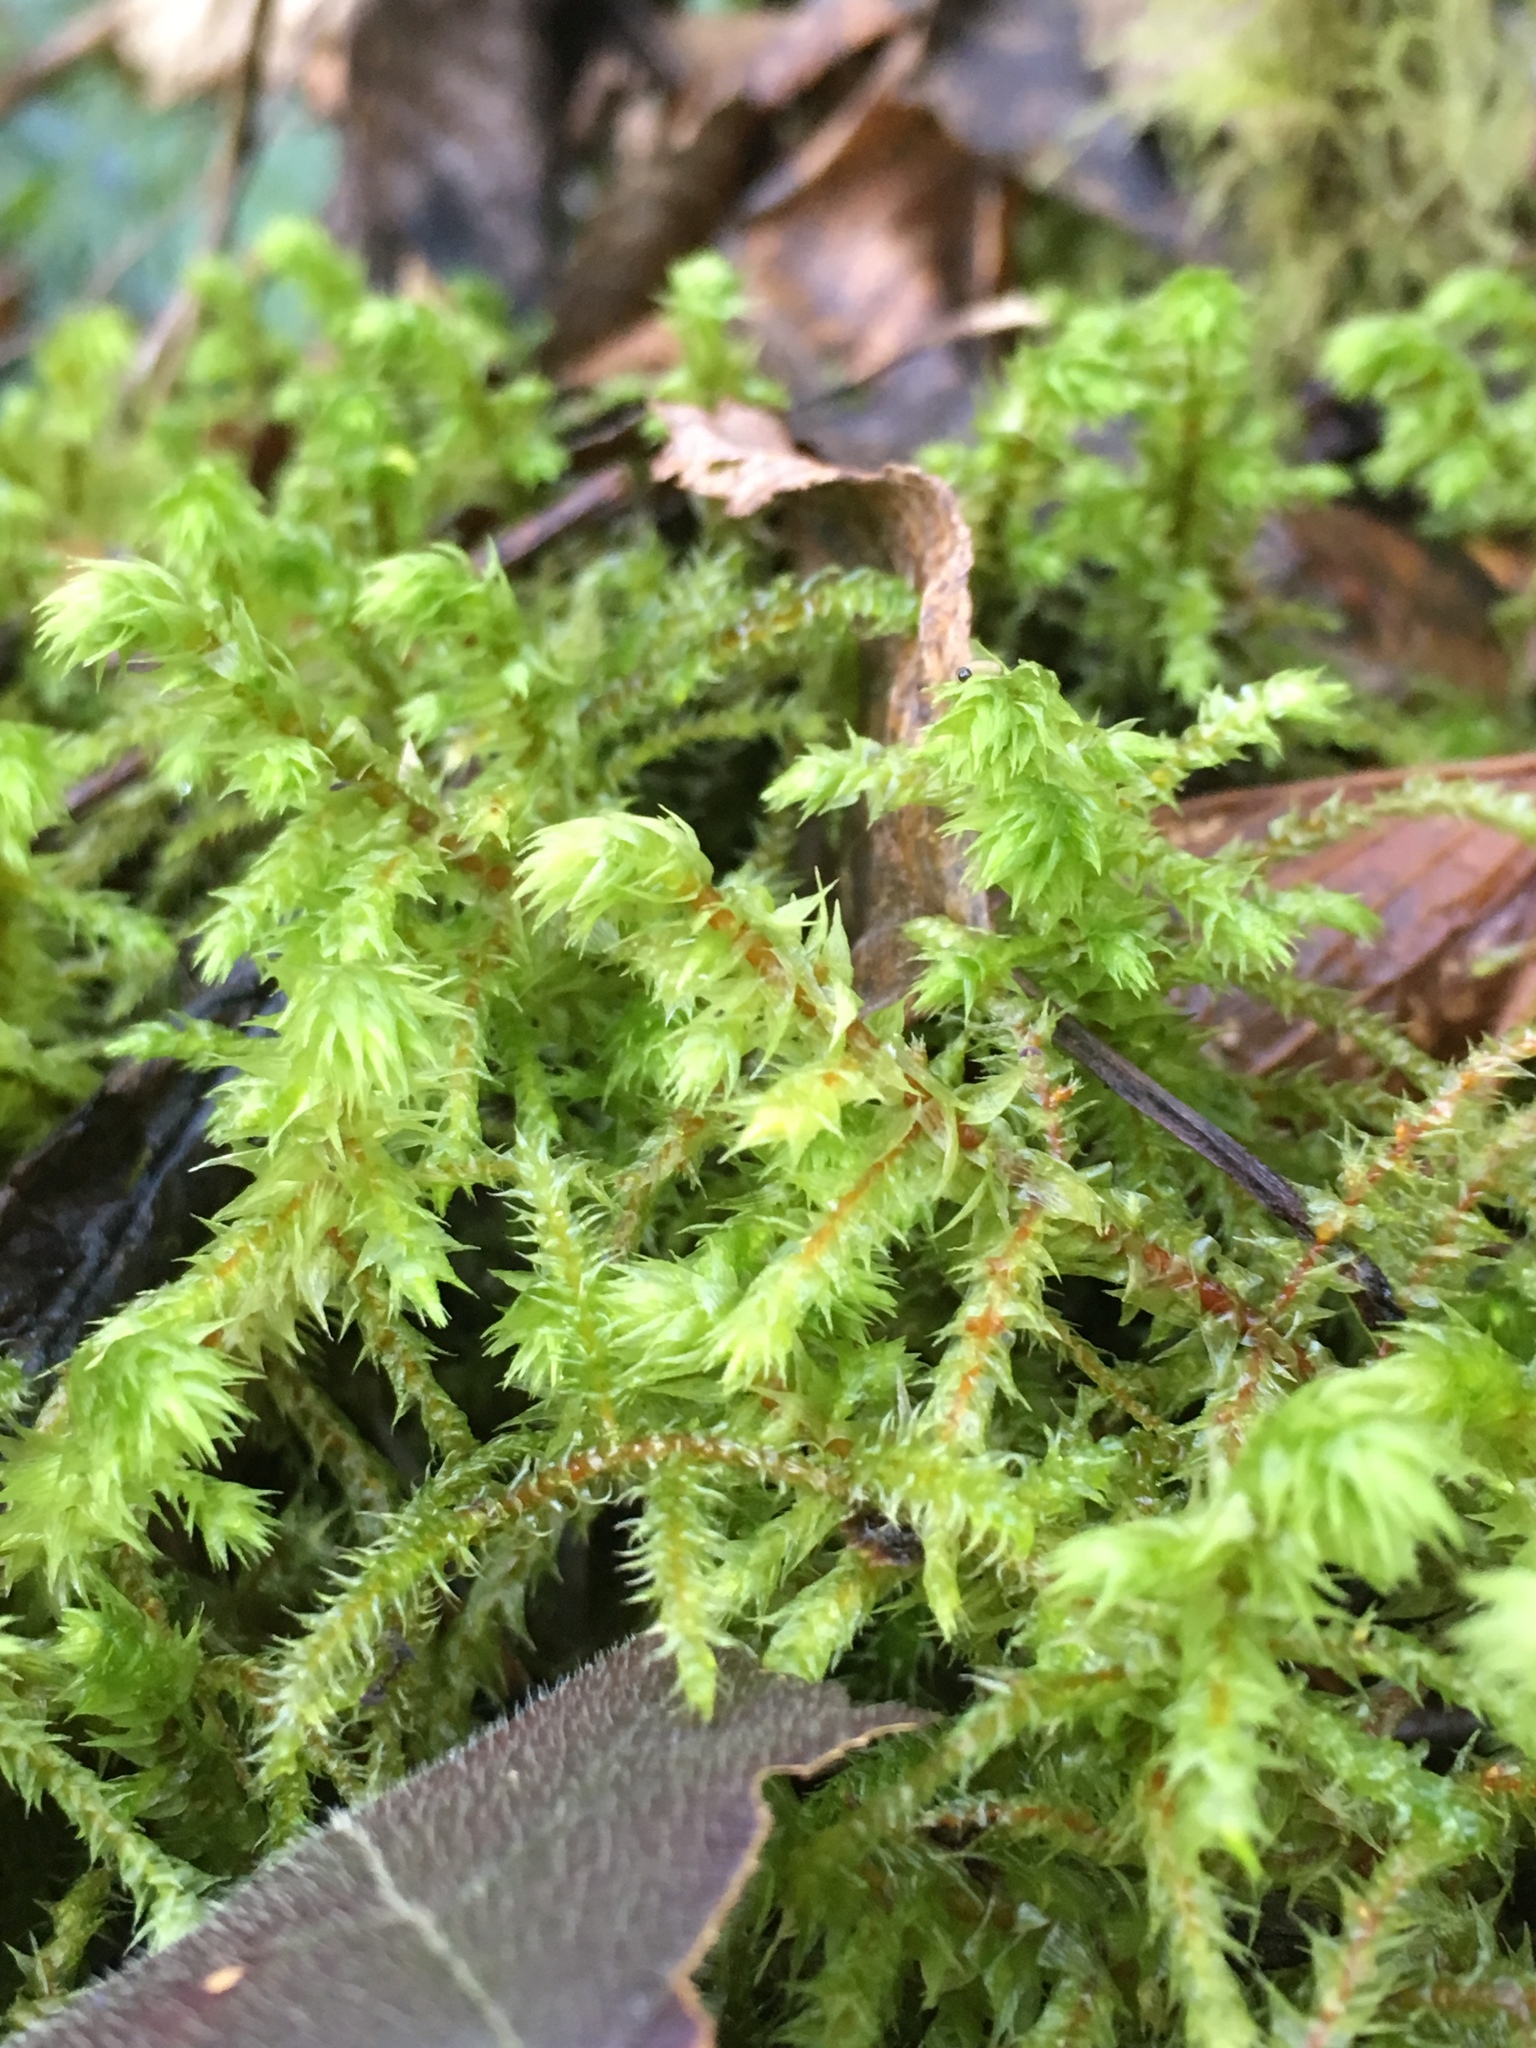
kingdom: Plantae
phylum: Bryophyta
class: Bryopsida
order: Hypnales
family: Hylocomiaceae
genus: Hylocomiadelphus
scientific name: Hylocomiadelphus triquetrus
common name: Rough goose neck moss
